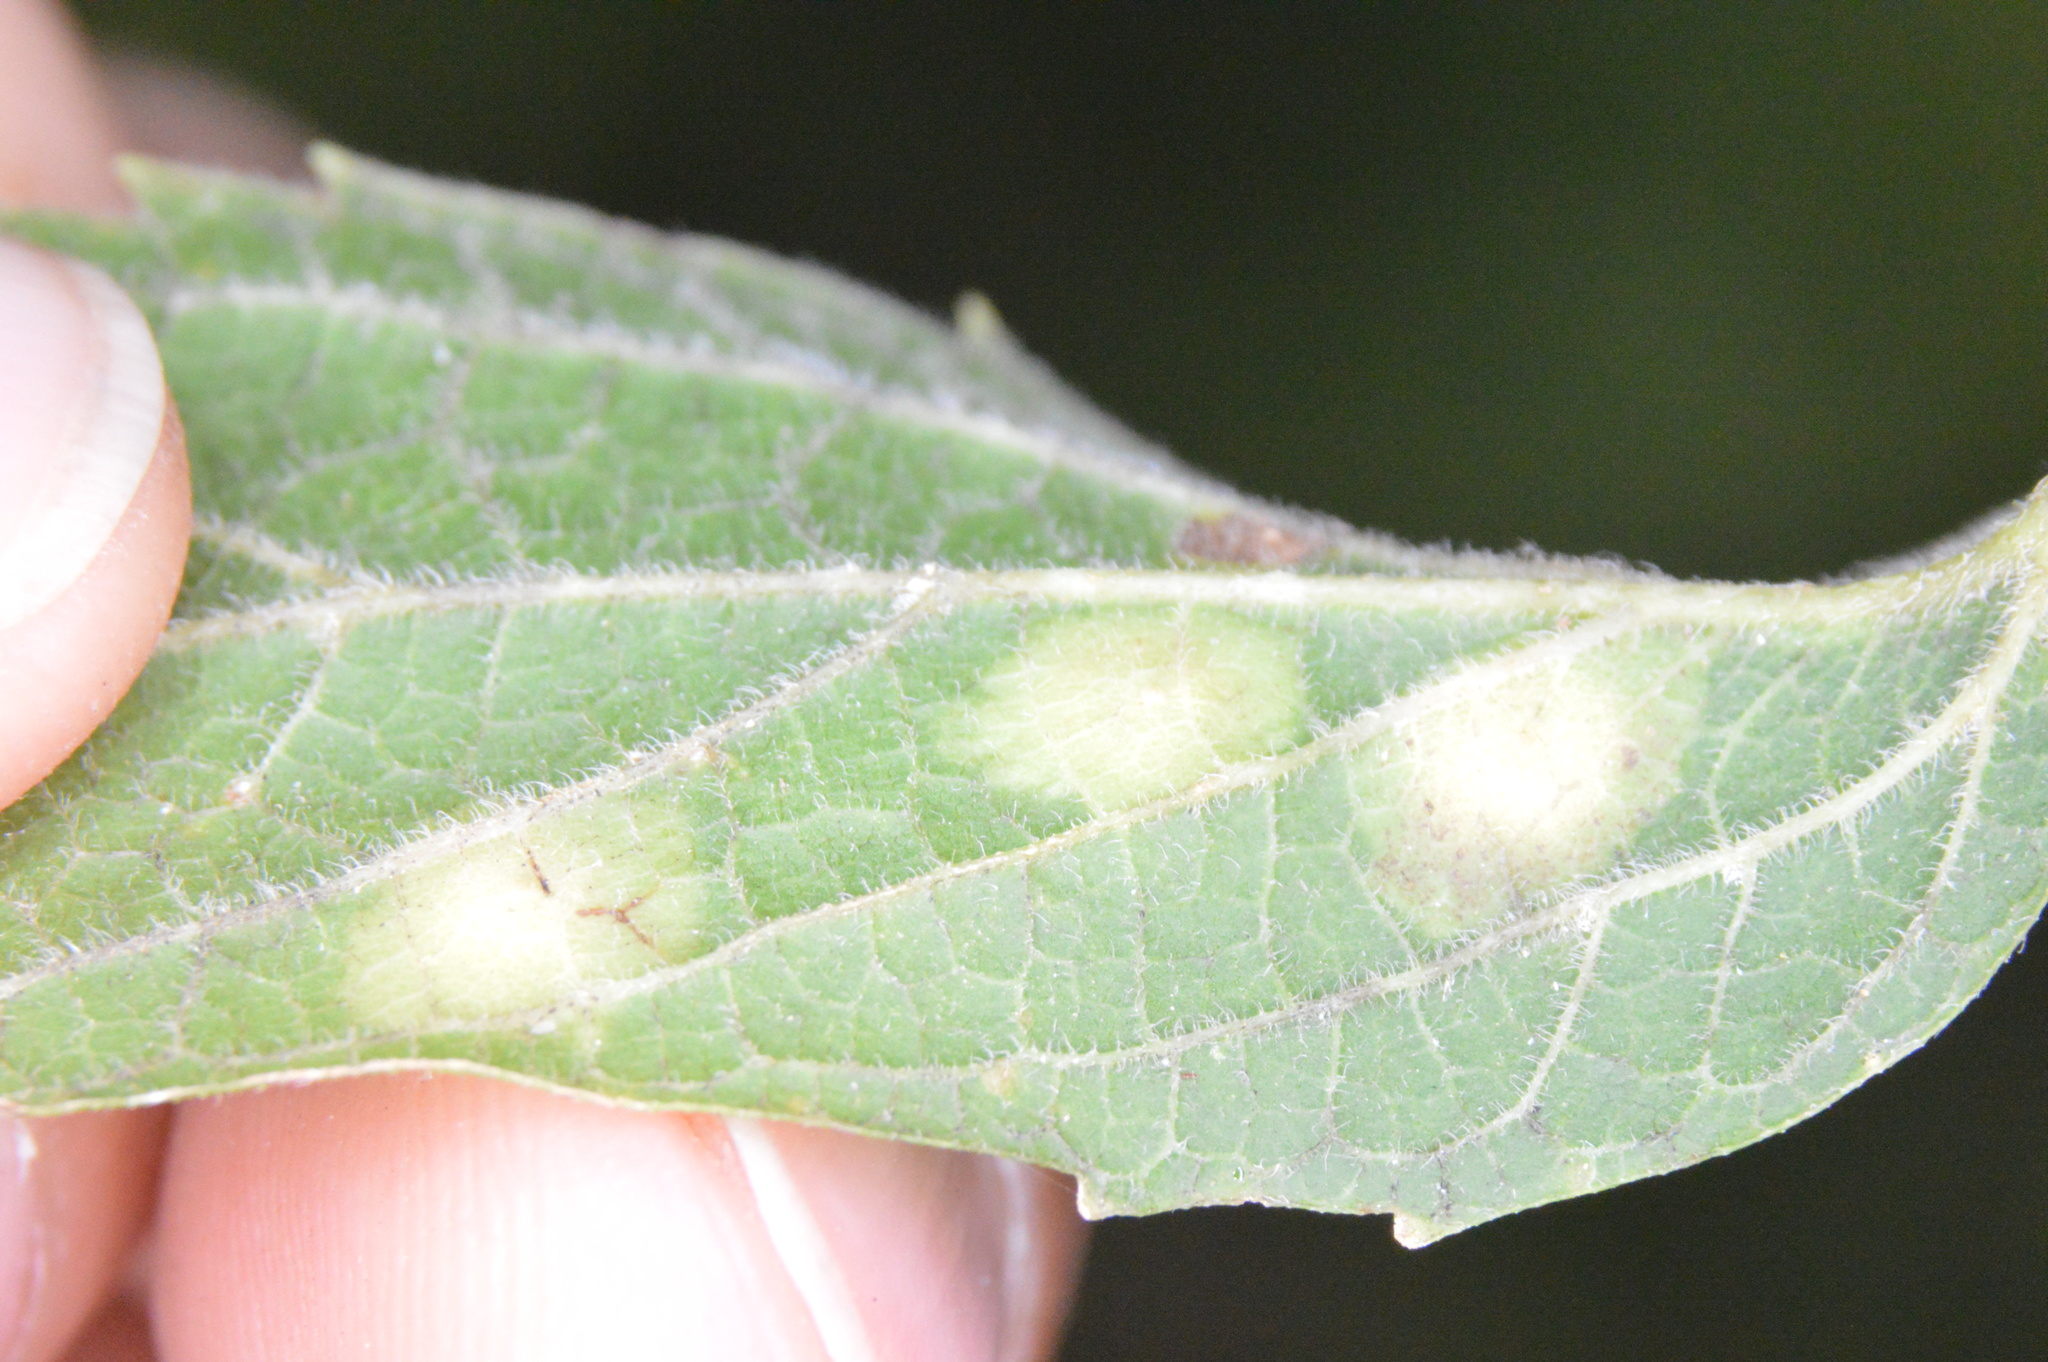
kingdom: Animalia
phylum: Arthropoda
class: Insecta
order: Hemiptera
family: Aphalaridae
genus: Pachypsylla
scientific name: Pachypsylla celtidisvesicula
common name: Hackberry blister gall psyllid
